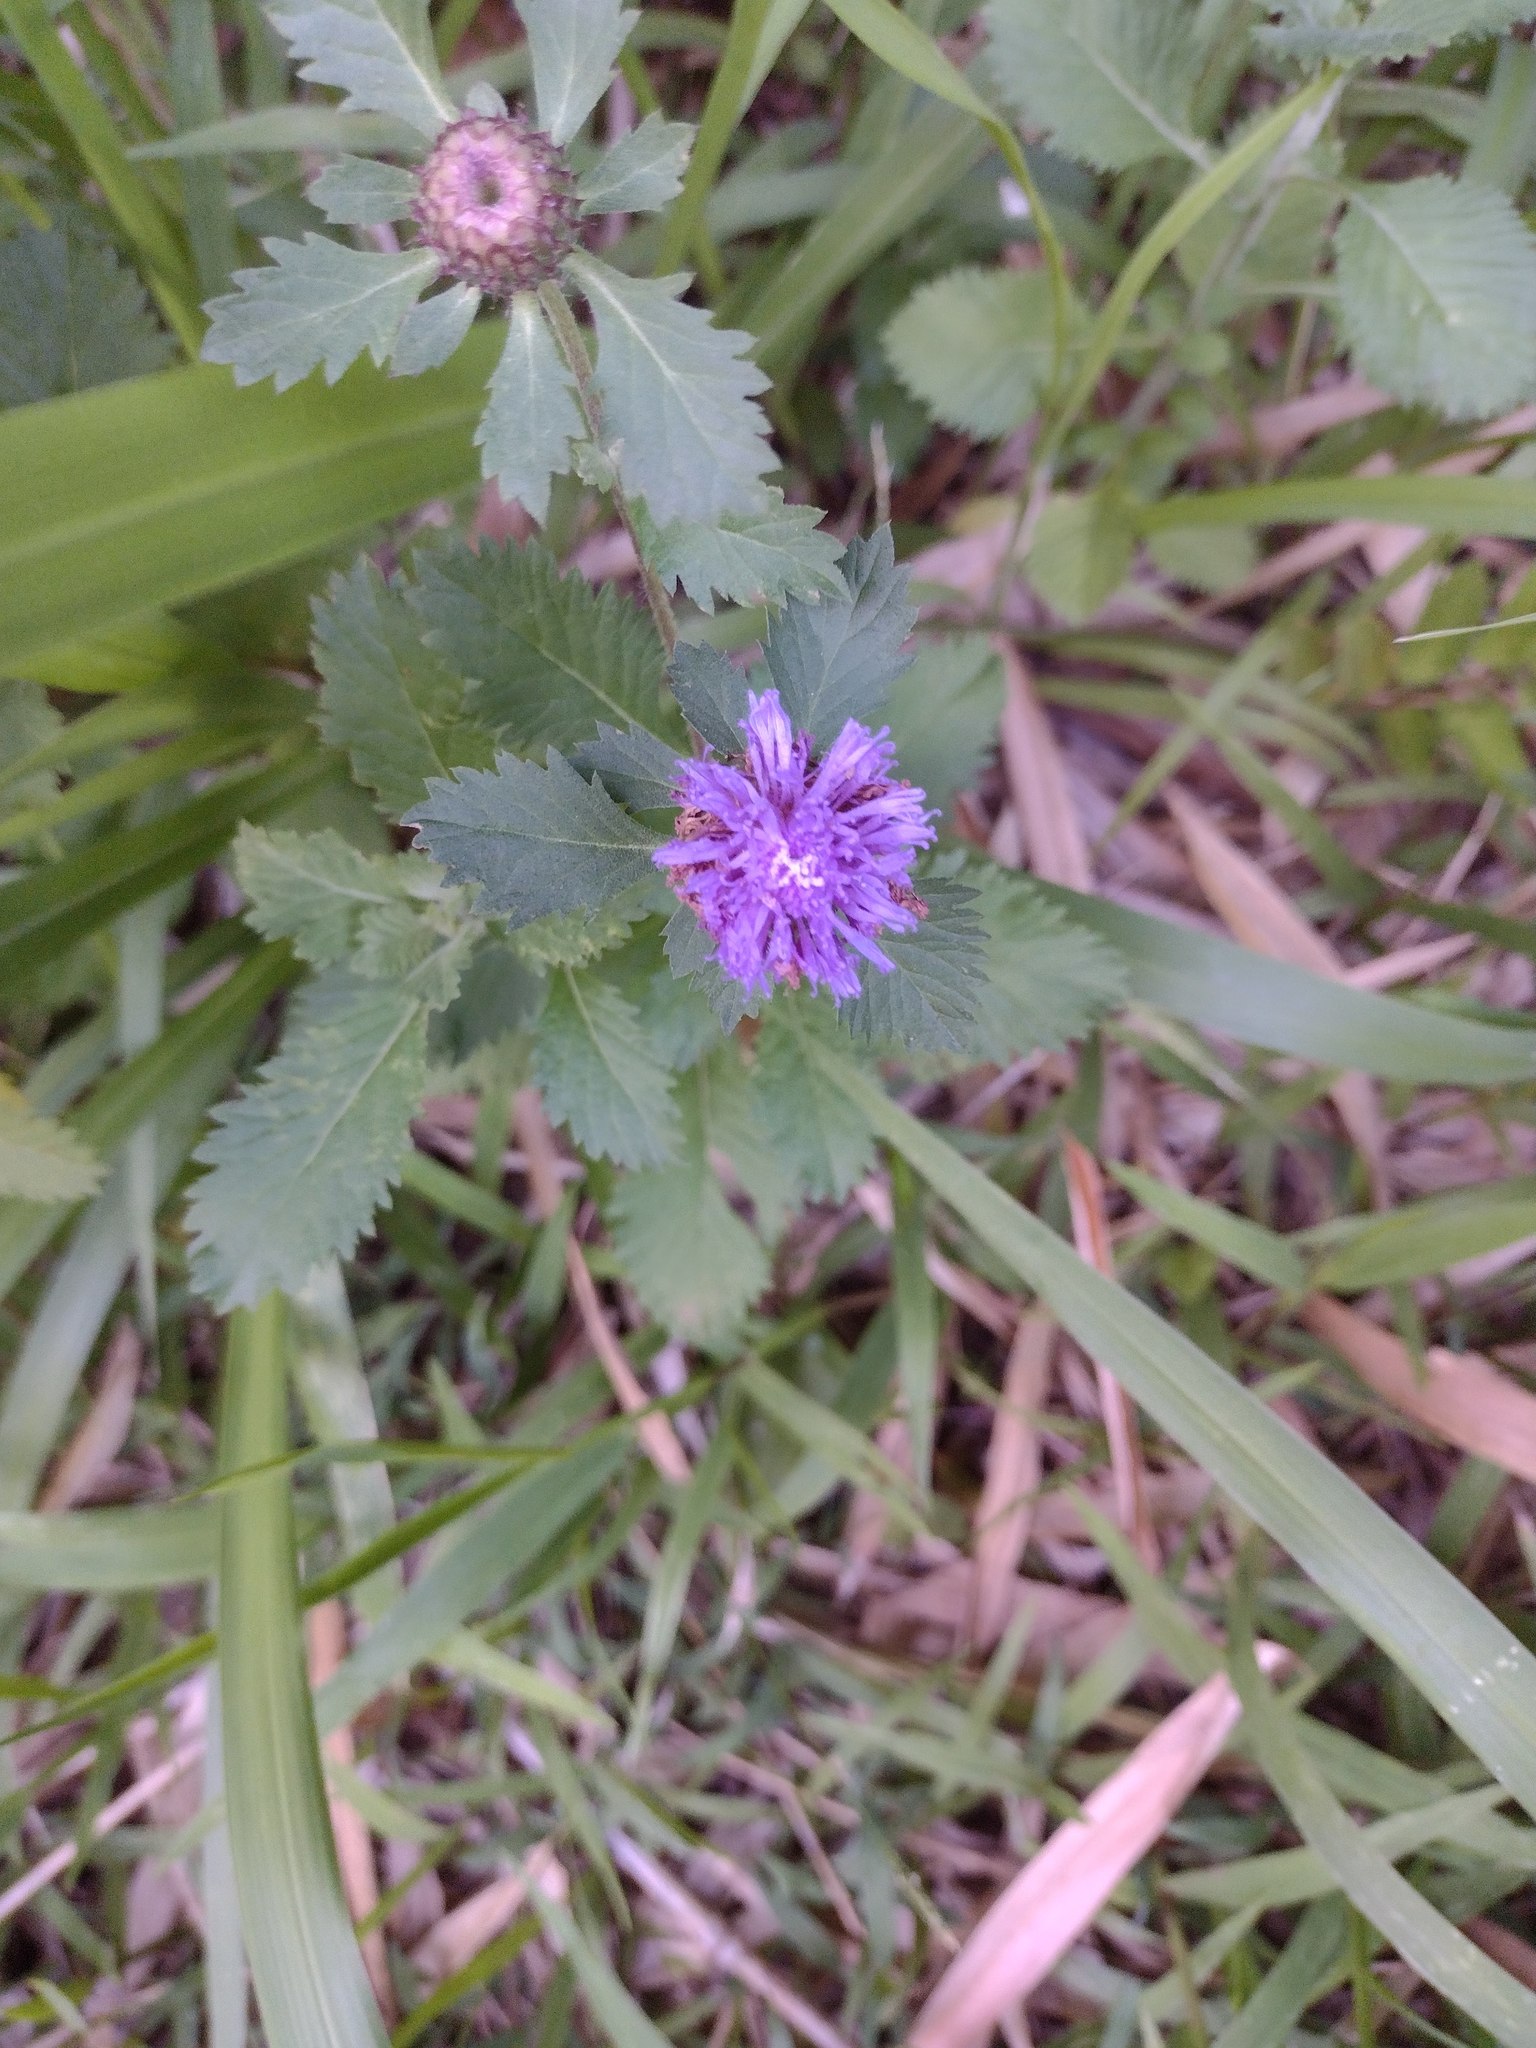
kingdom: Plantae
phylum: Tracheophyta
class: Magnoliopsida
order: Asterales
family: Asteraceae
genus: Centratherum
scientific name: Centratherum punctatum
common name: Larkdaisy
